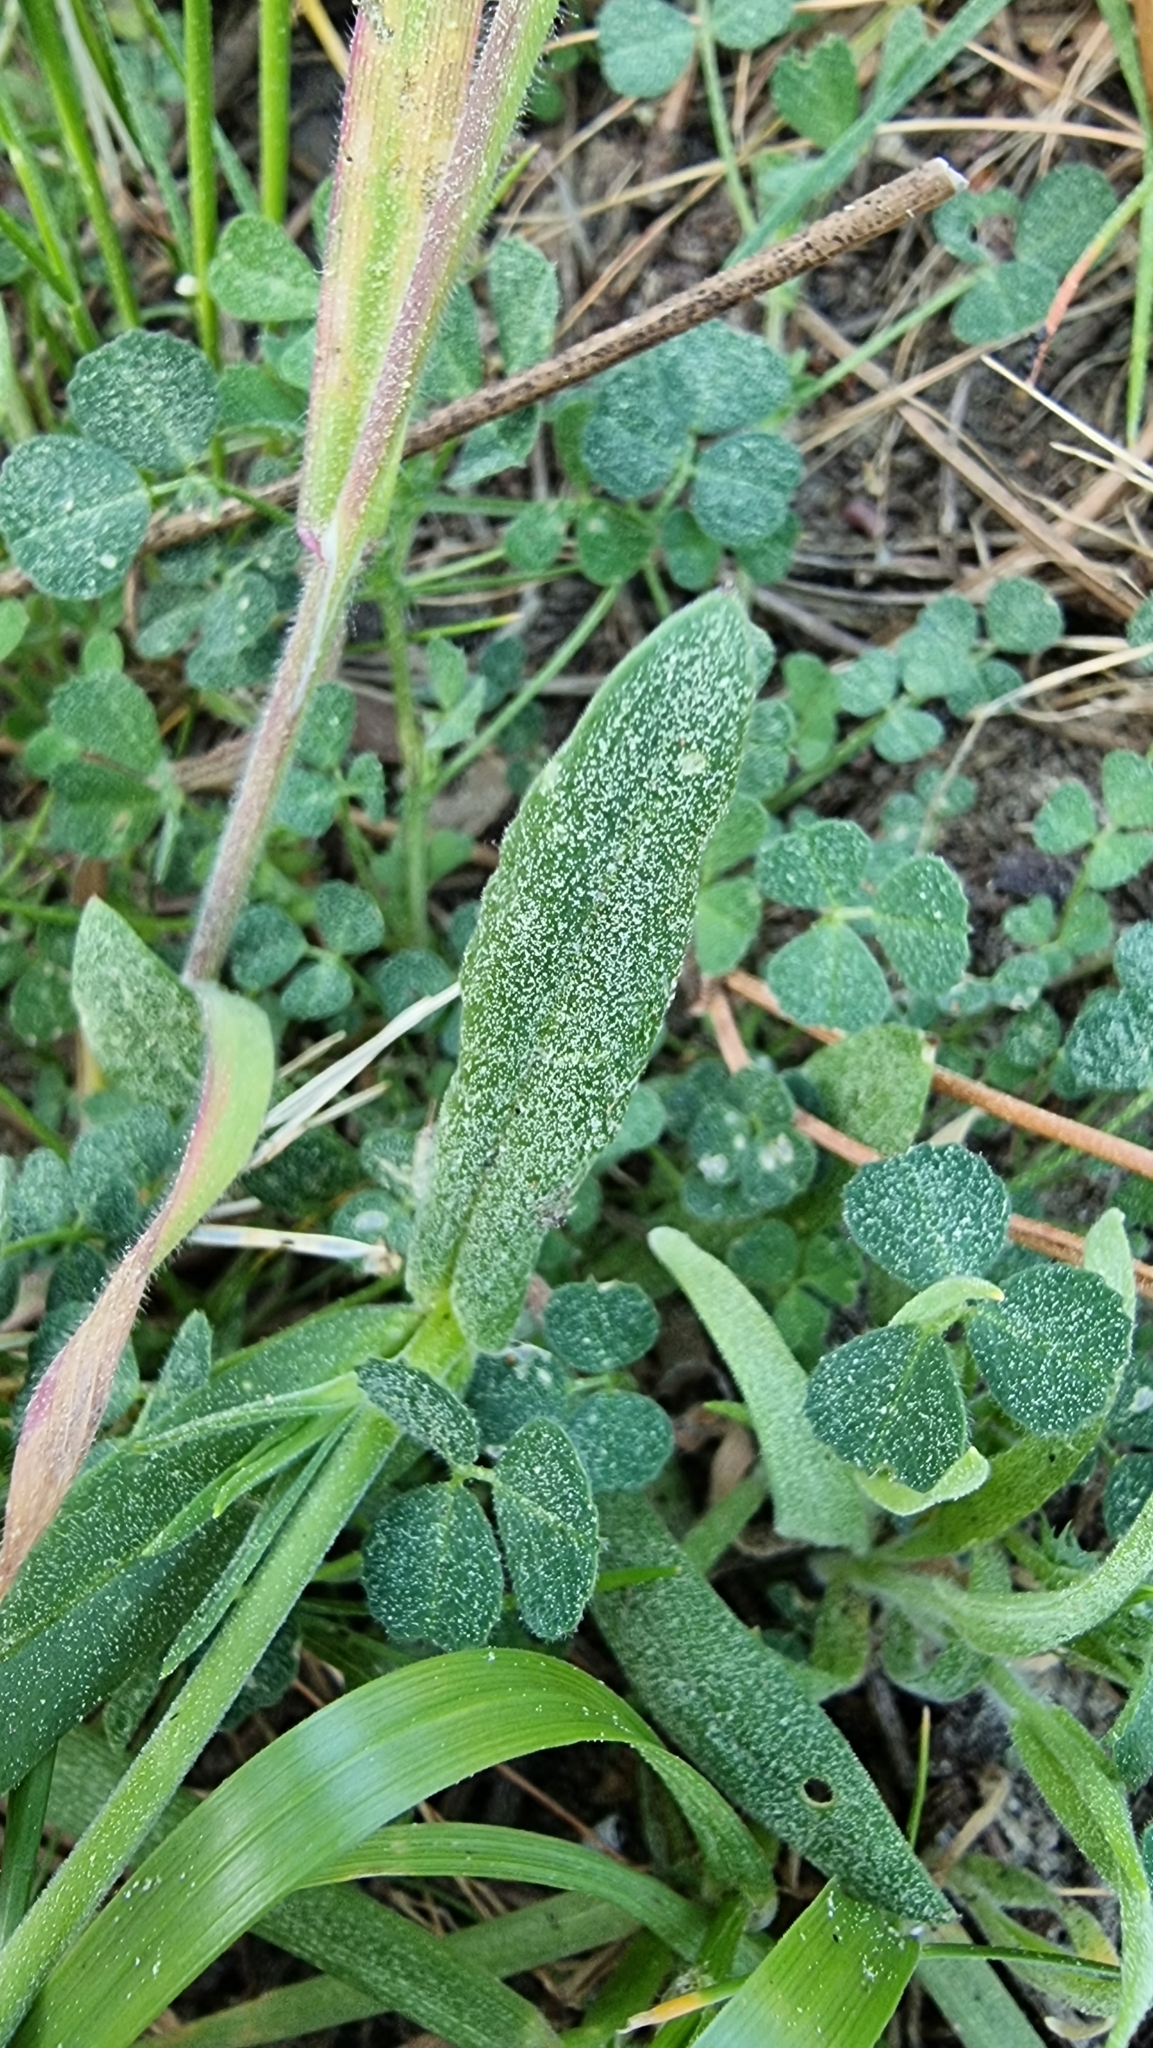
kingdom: Plantae
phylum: Tracheophyta
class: Magnoliopsida
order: Caryophyllales
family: Caryophyllaceae
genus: Silene
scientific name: Silene conica
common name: Sand catchfly
